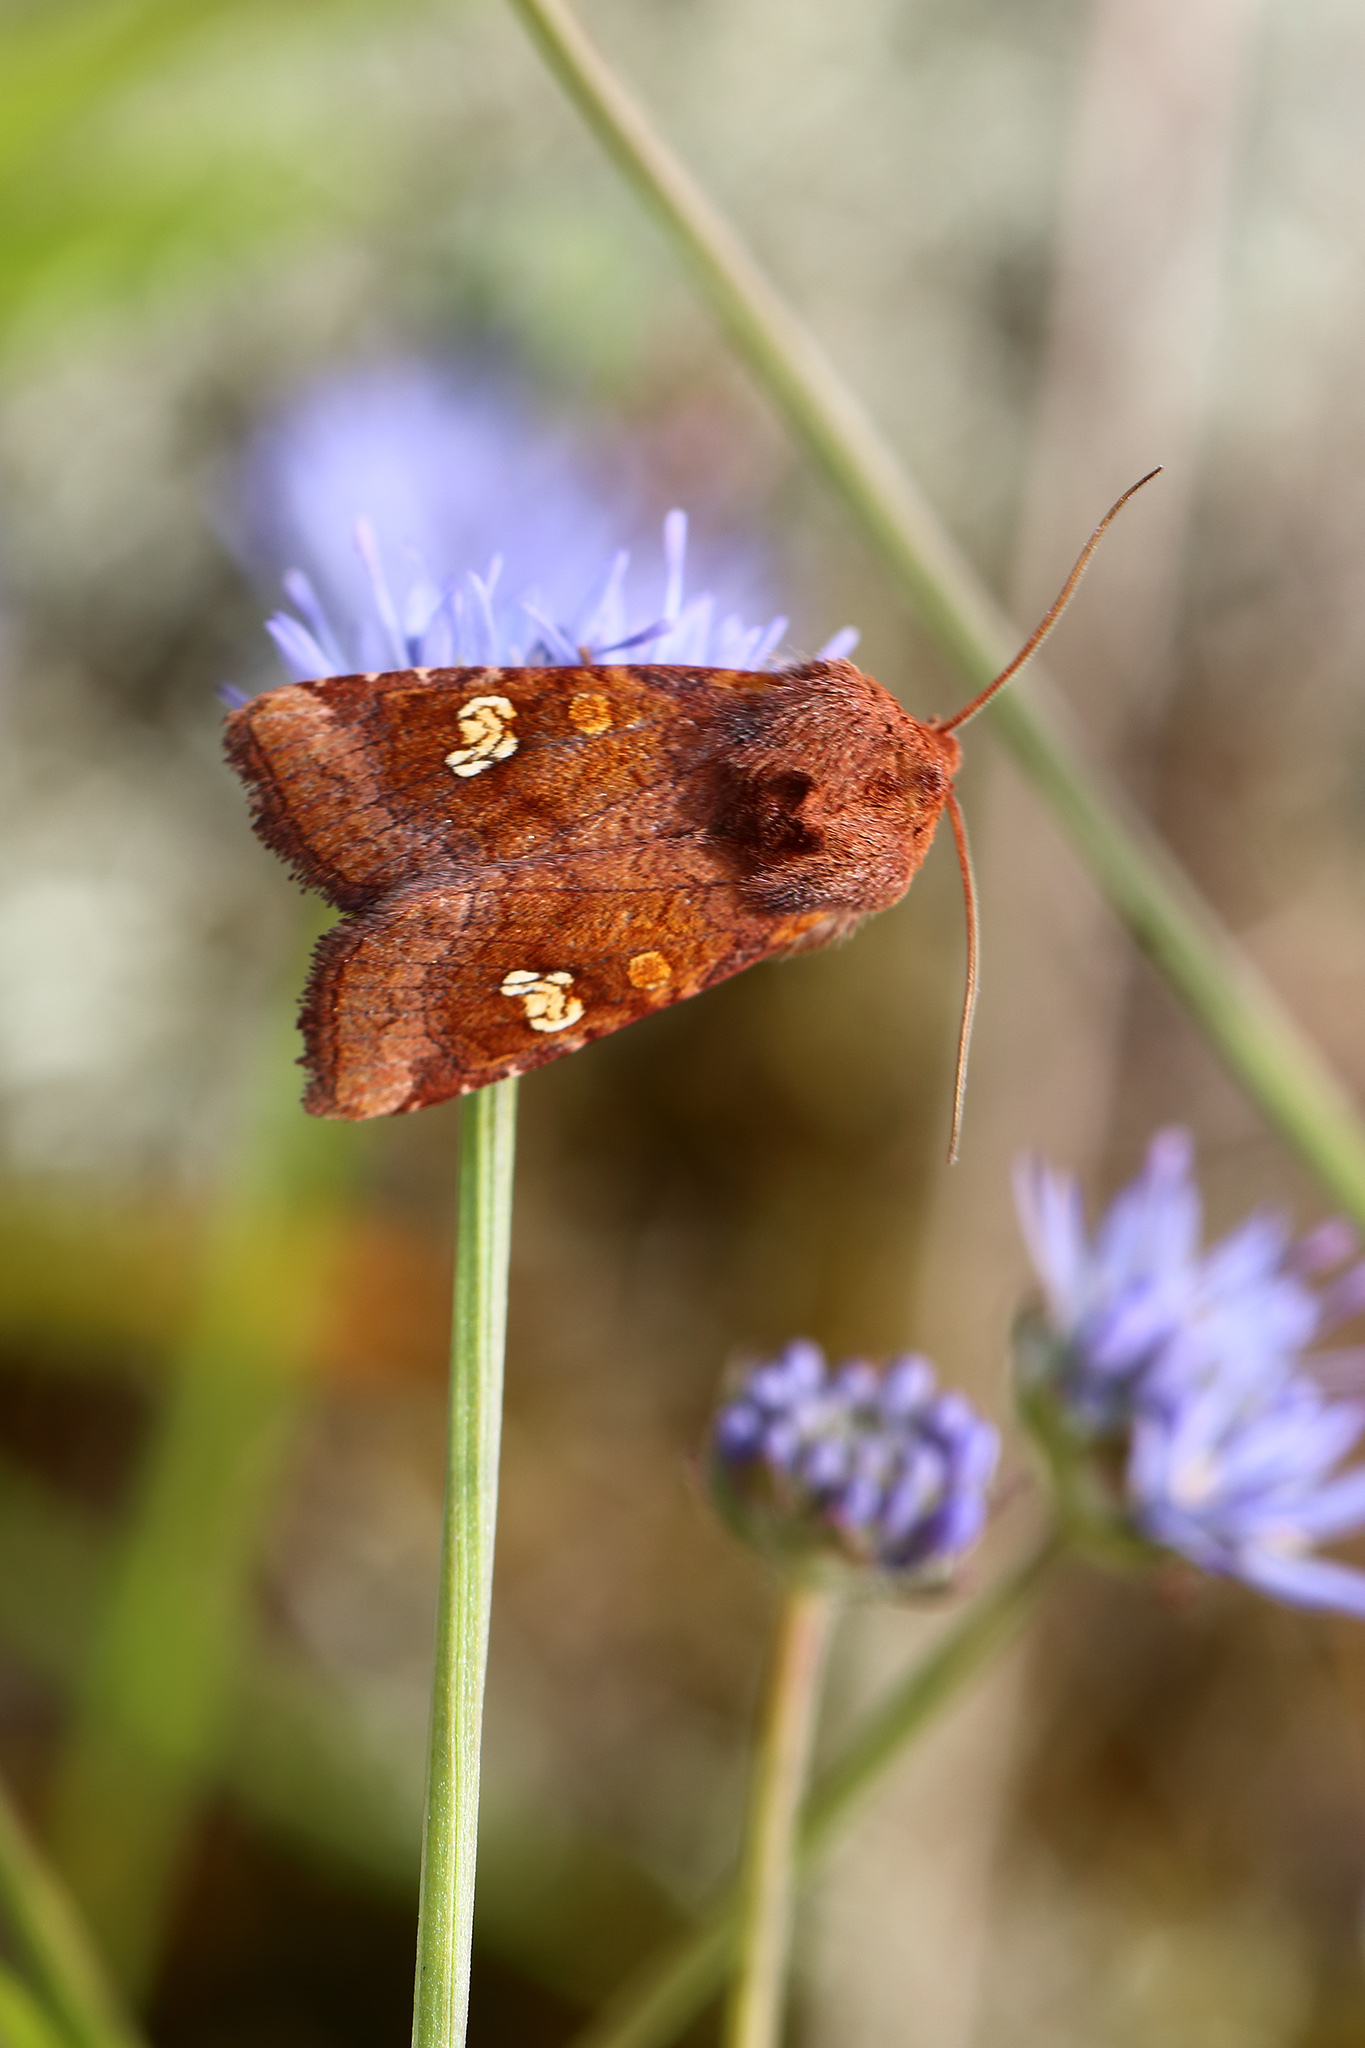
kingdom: Animalia
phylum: Arthropoda
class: Insecta
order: Lepidoptera
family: Noctuidae
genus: Amphipoea
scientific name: Amphipoea oculea
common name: Ear moth
